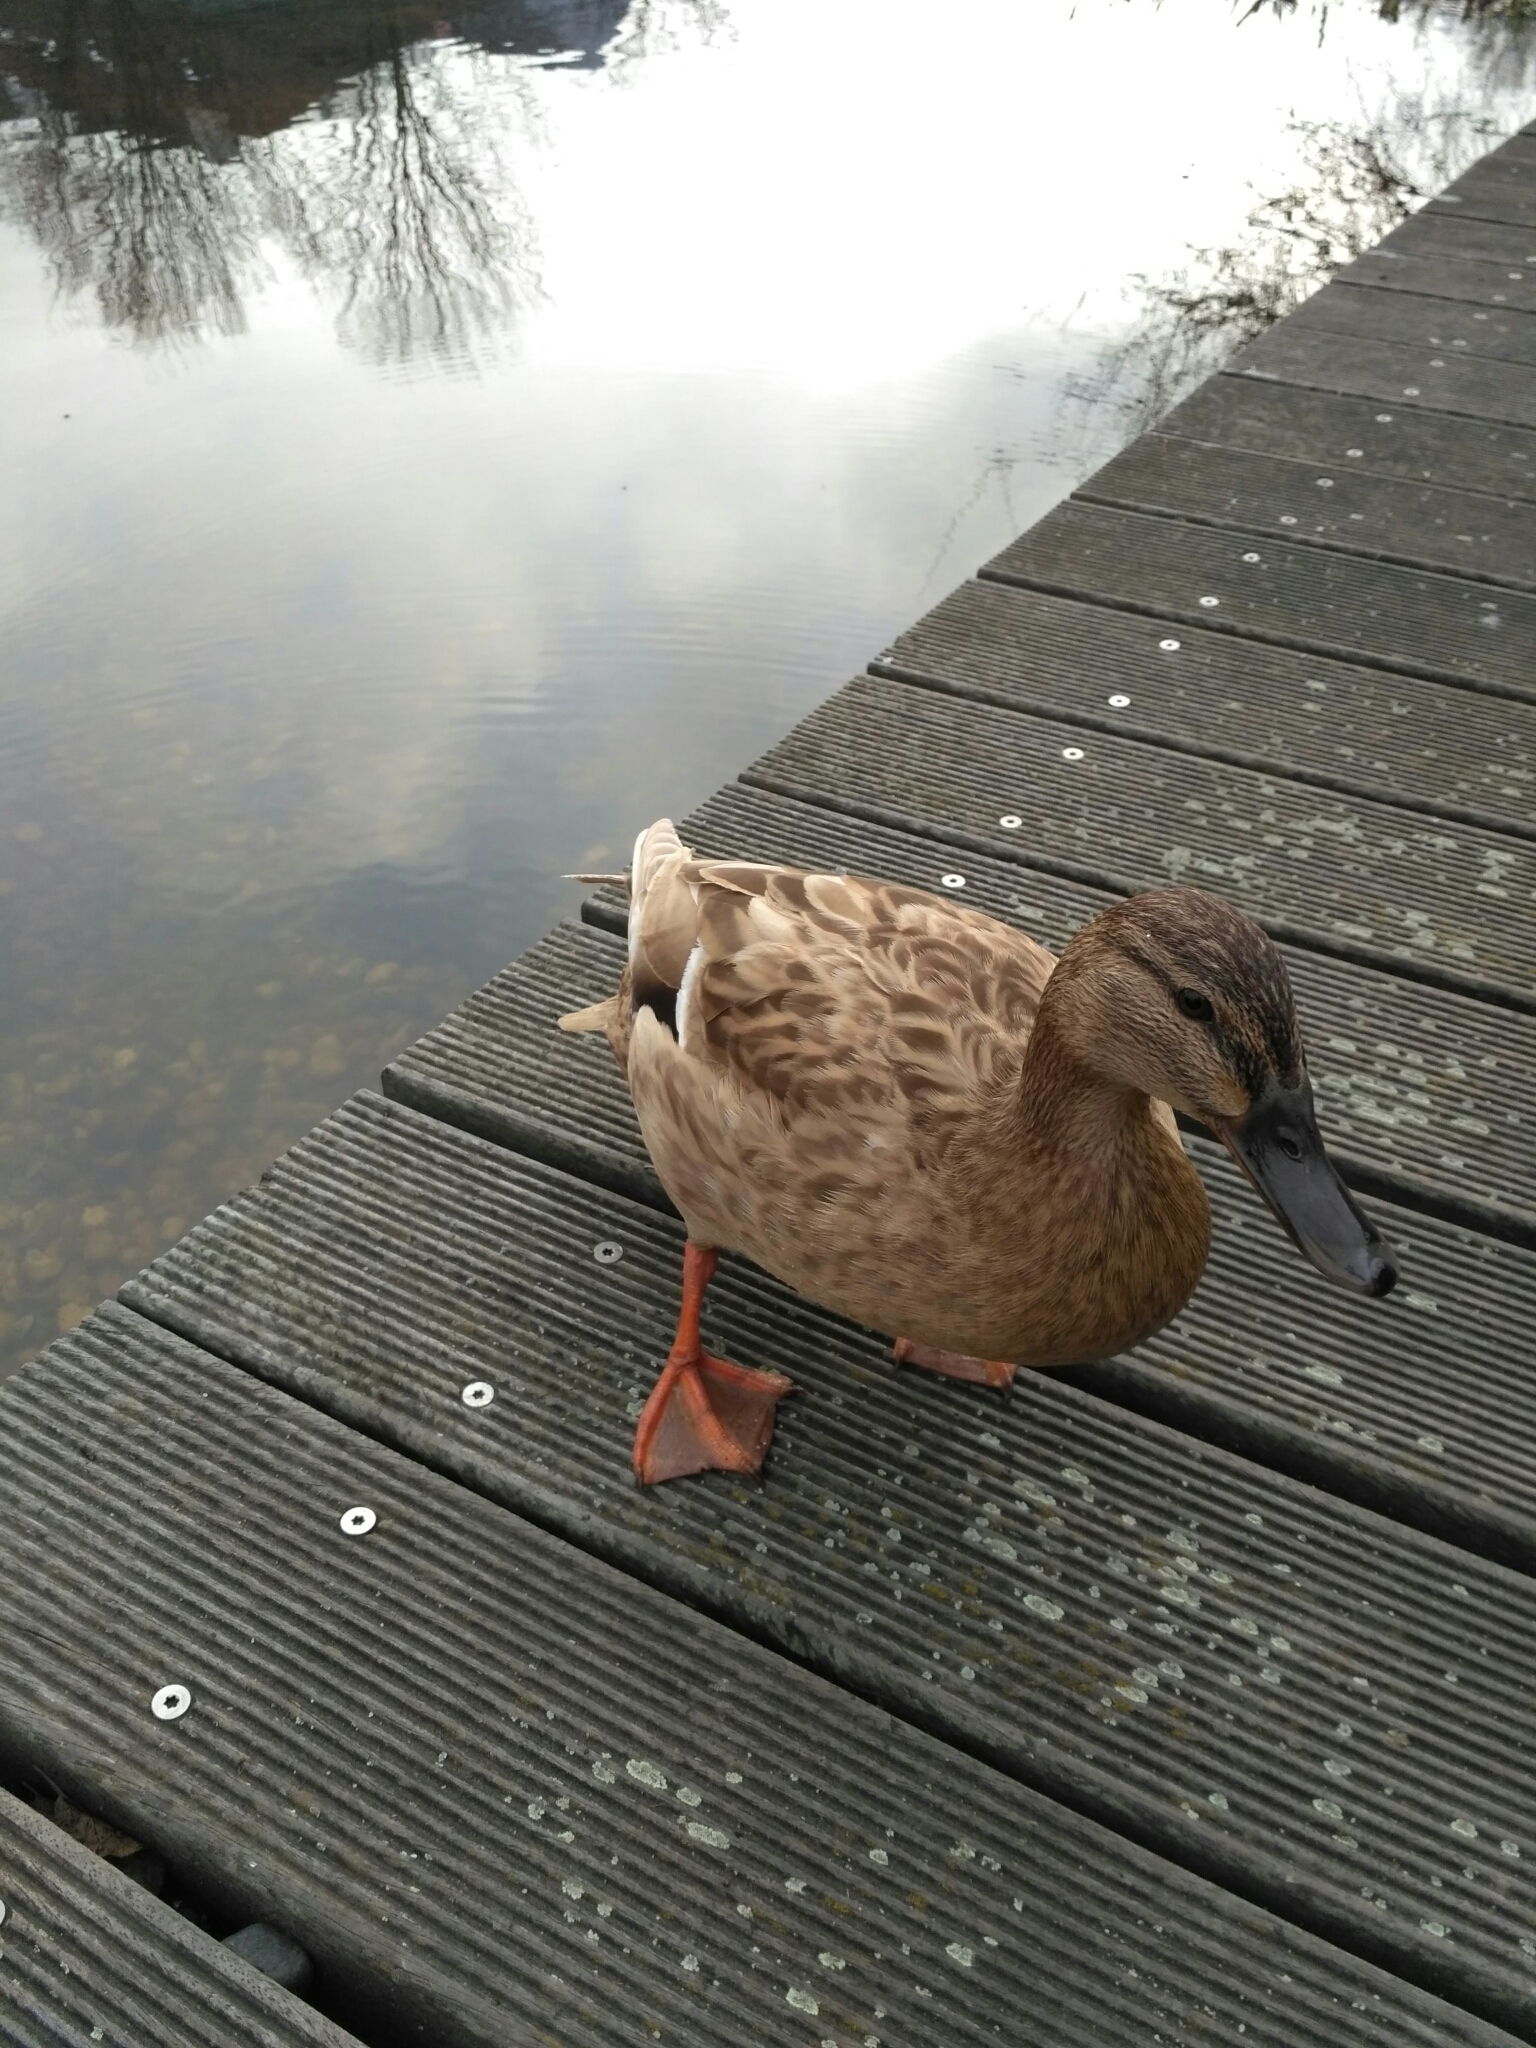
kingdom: Animalia
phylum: Chordata
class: Aves
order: Anseriformes
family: Anatidae
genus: Anas
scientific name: Anas platyrhynchos
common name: Mallard
